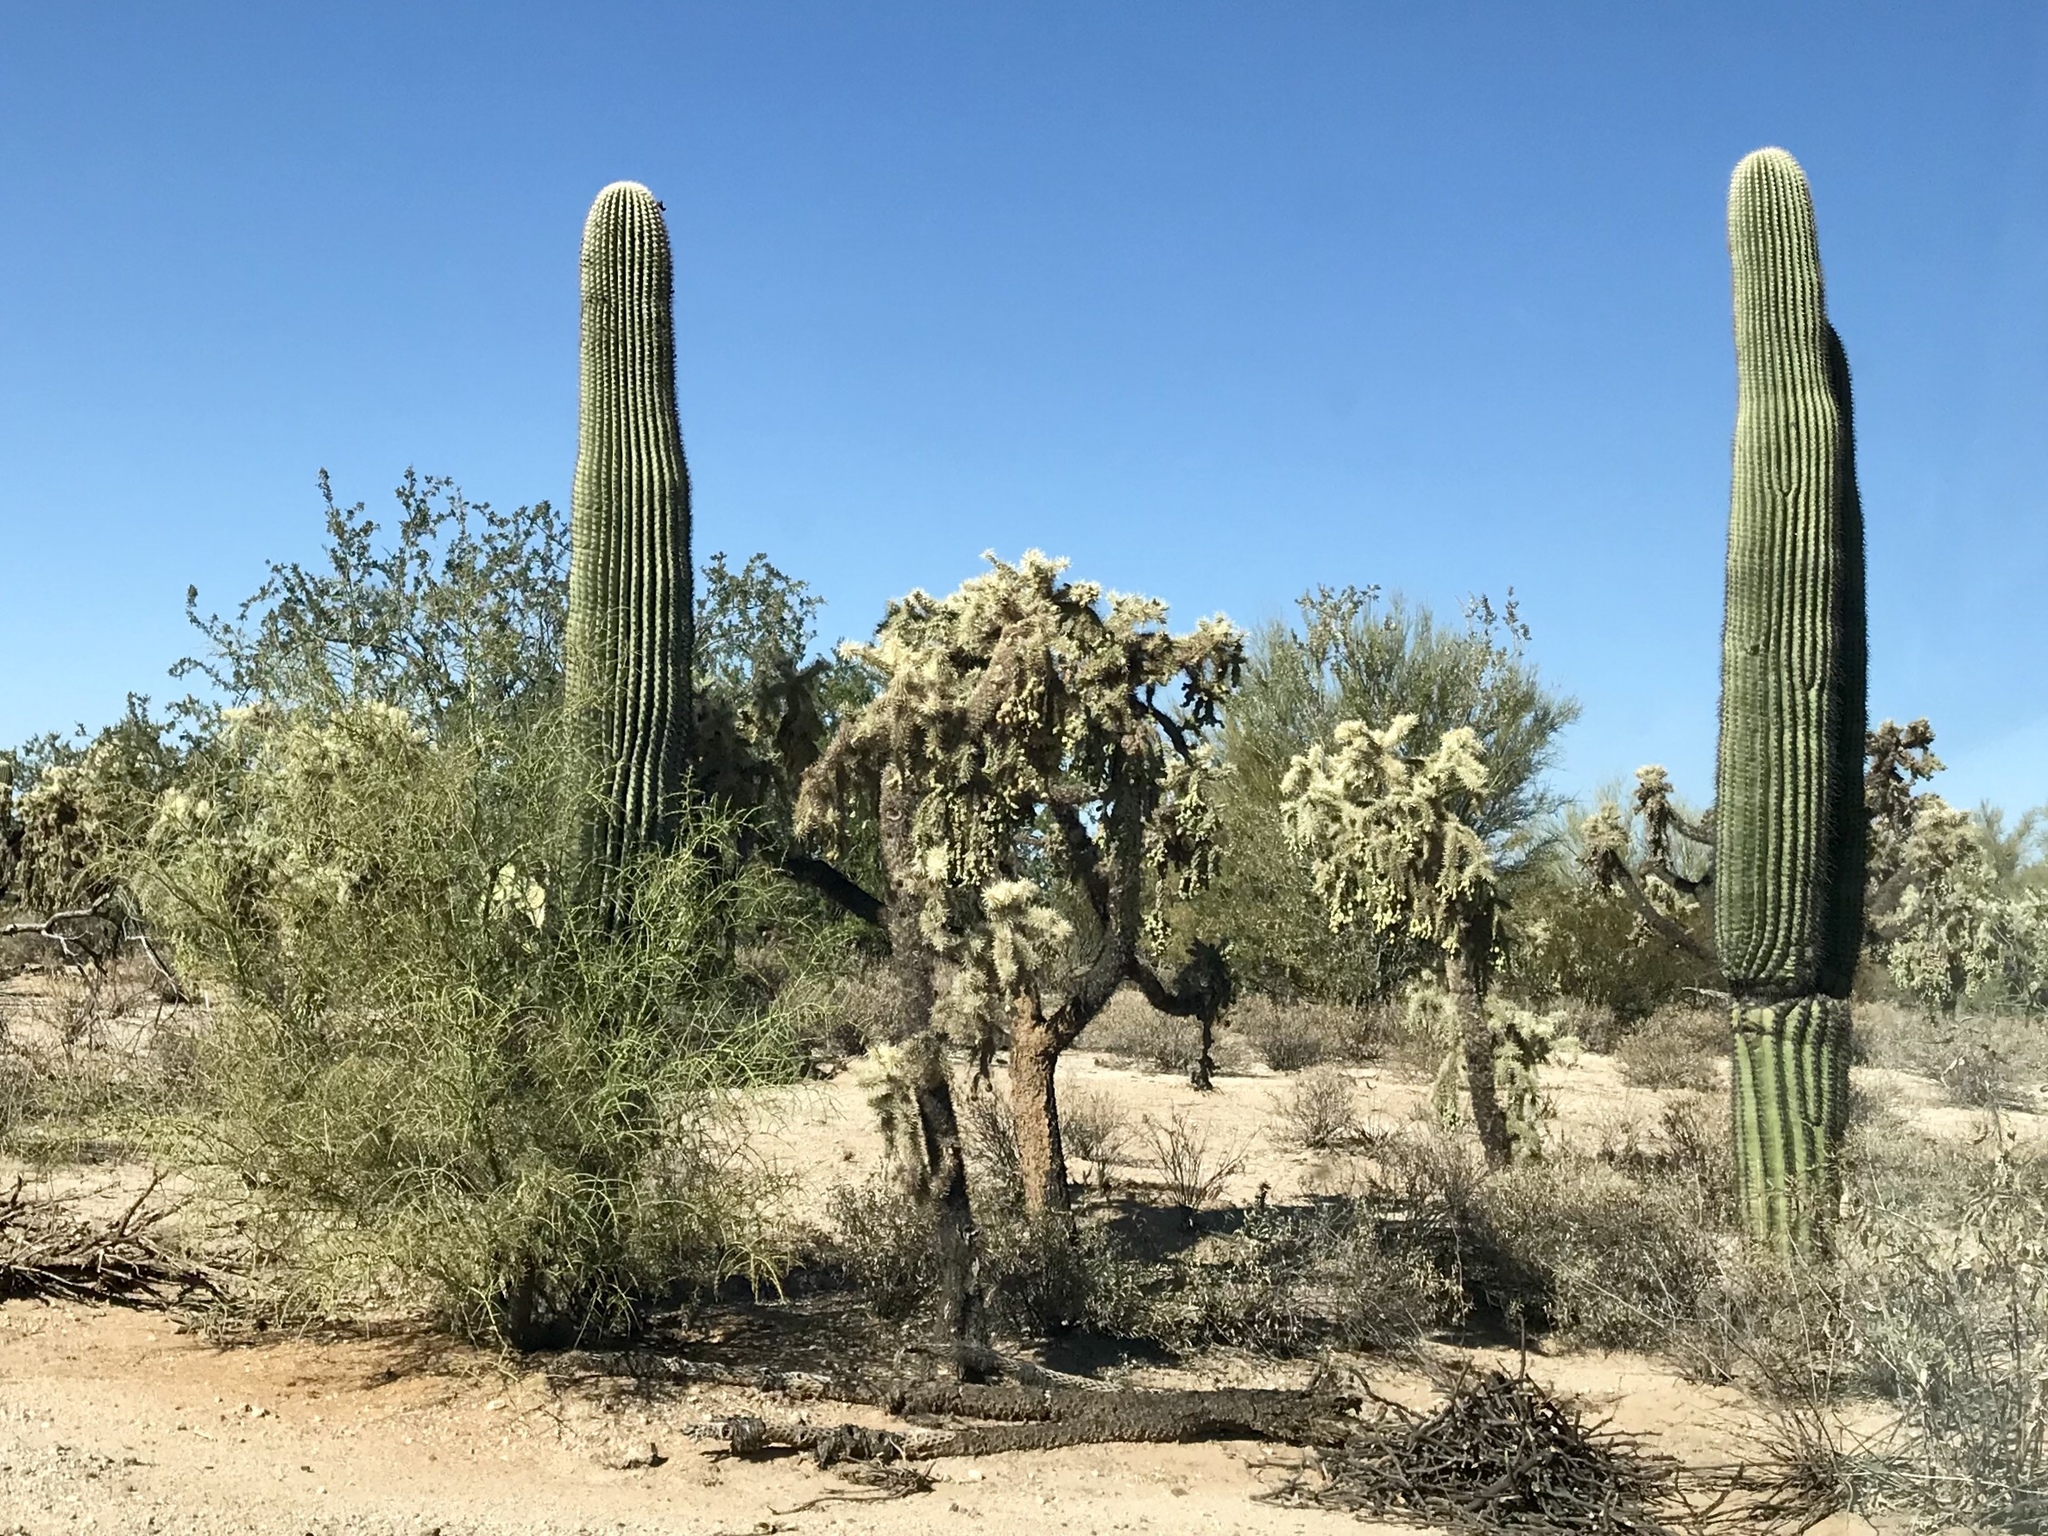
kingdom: Plantae
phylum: Tracheophyta
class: Magnoliopsida
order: Caryophyllales
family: Cactaceae
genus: Carnegiea
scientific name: Carnegiea gigantea
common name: Saguaro
